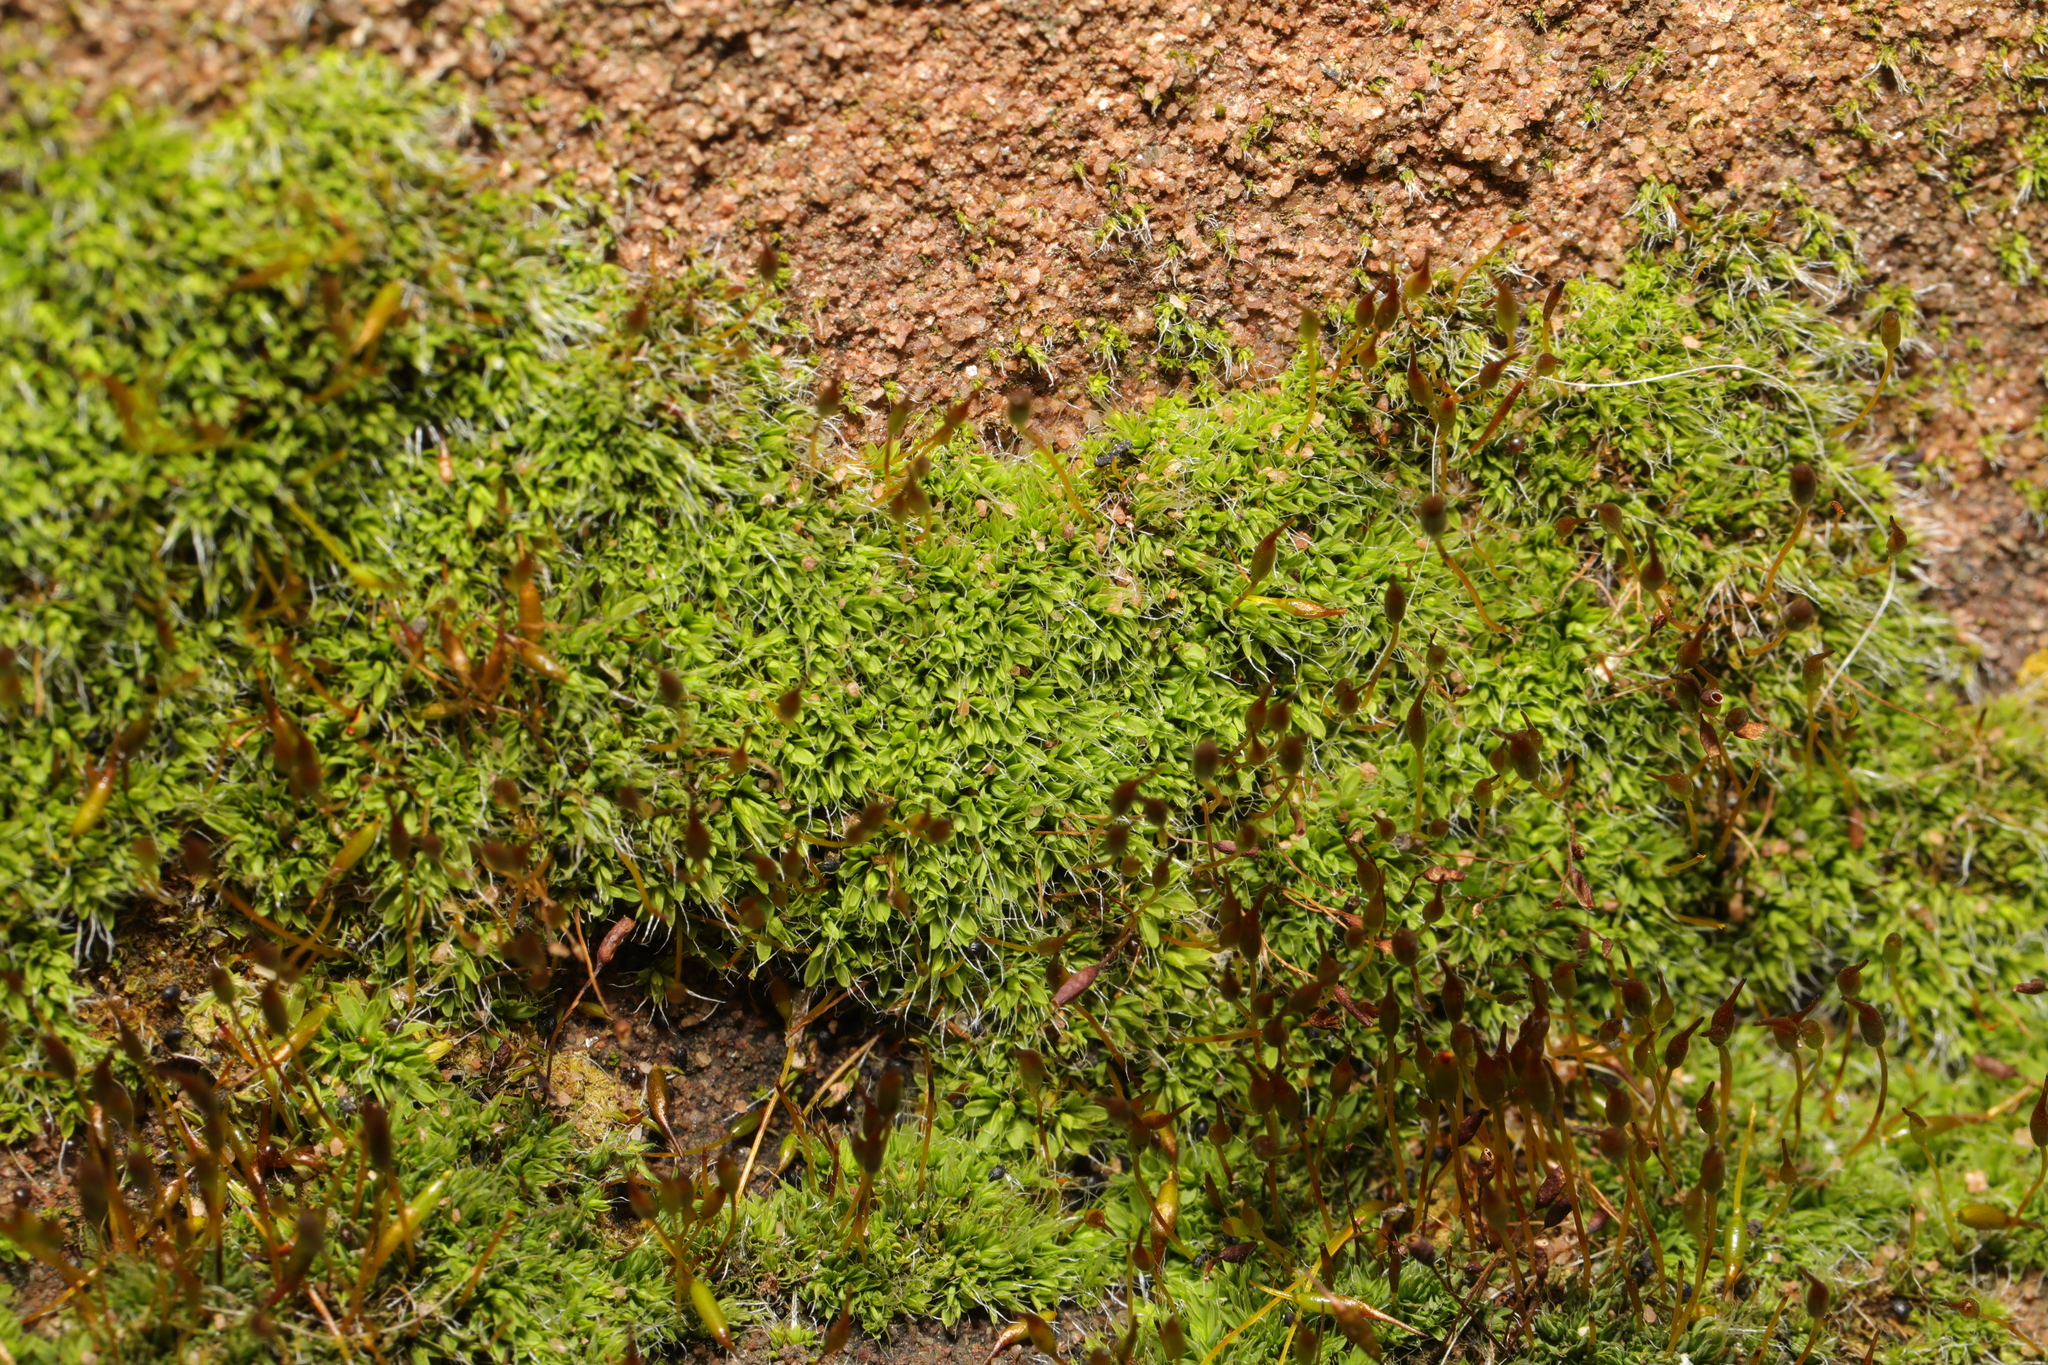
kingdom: Plantae
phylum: Bryophyta
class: Bryopsida
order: Pottiales
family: Pottiaceae
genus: Tortula
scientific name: Tortula muralis
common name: Wall screw-moss
